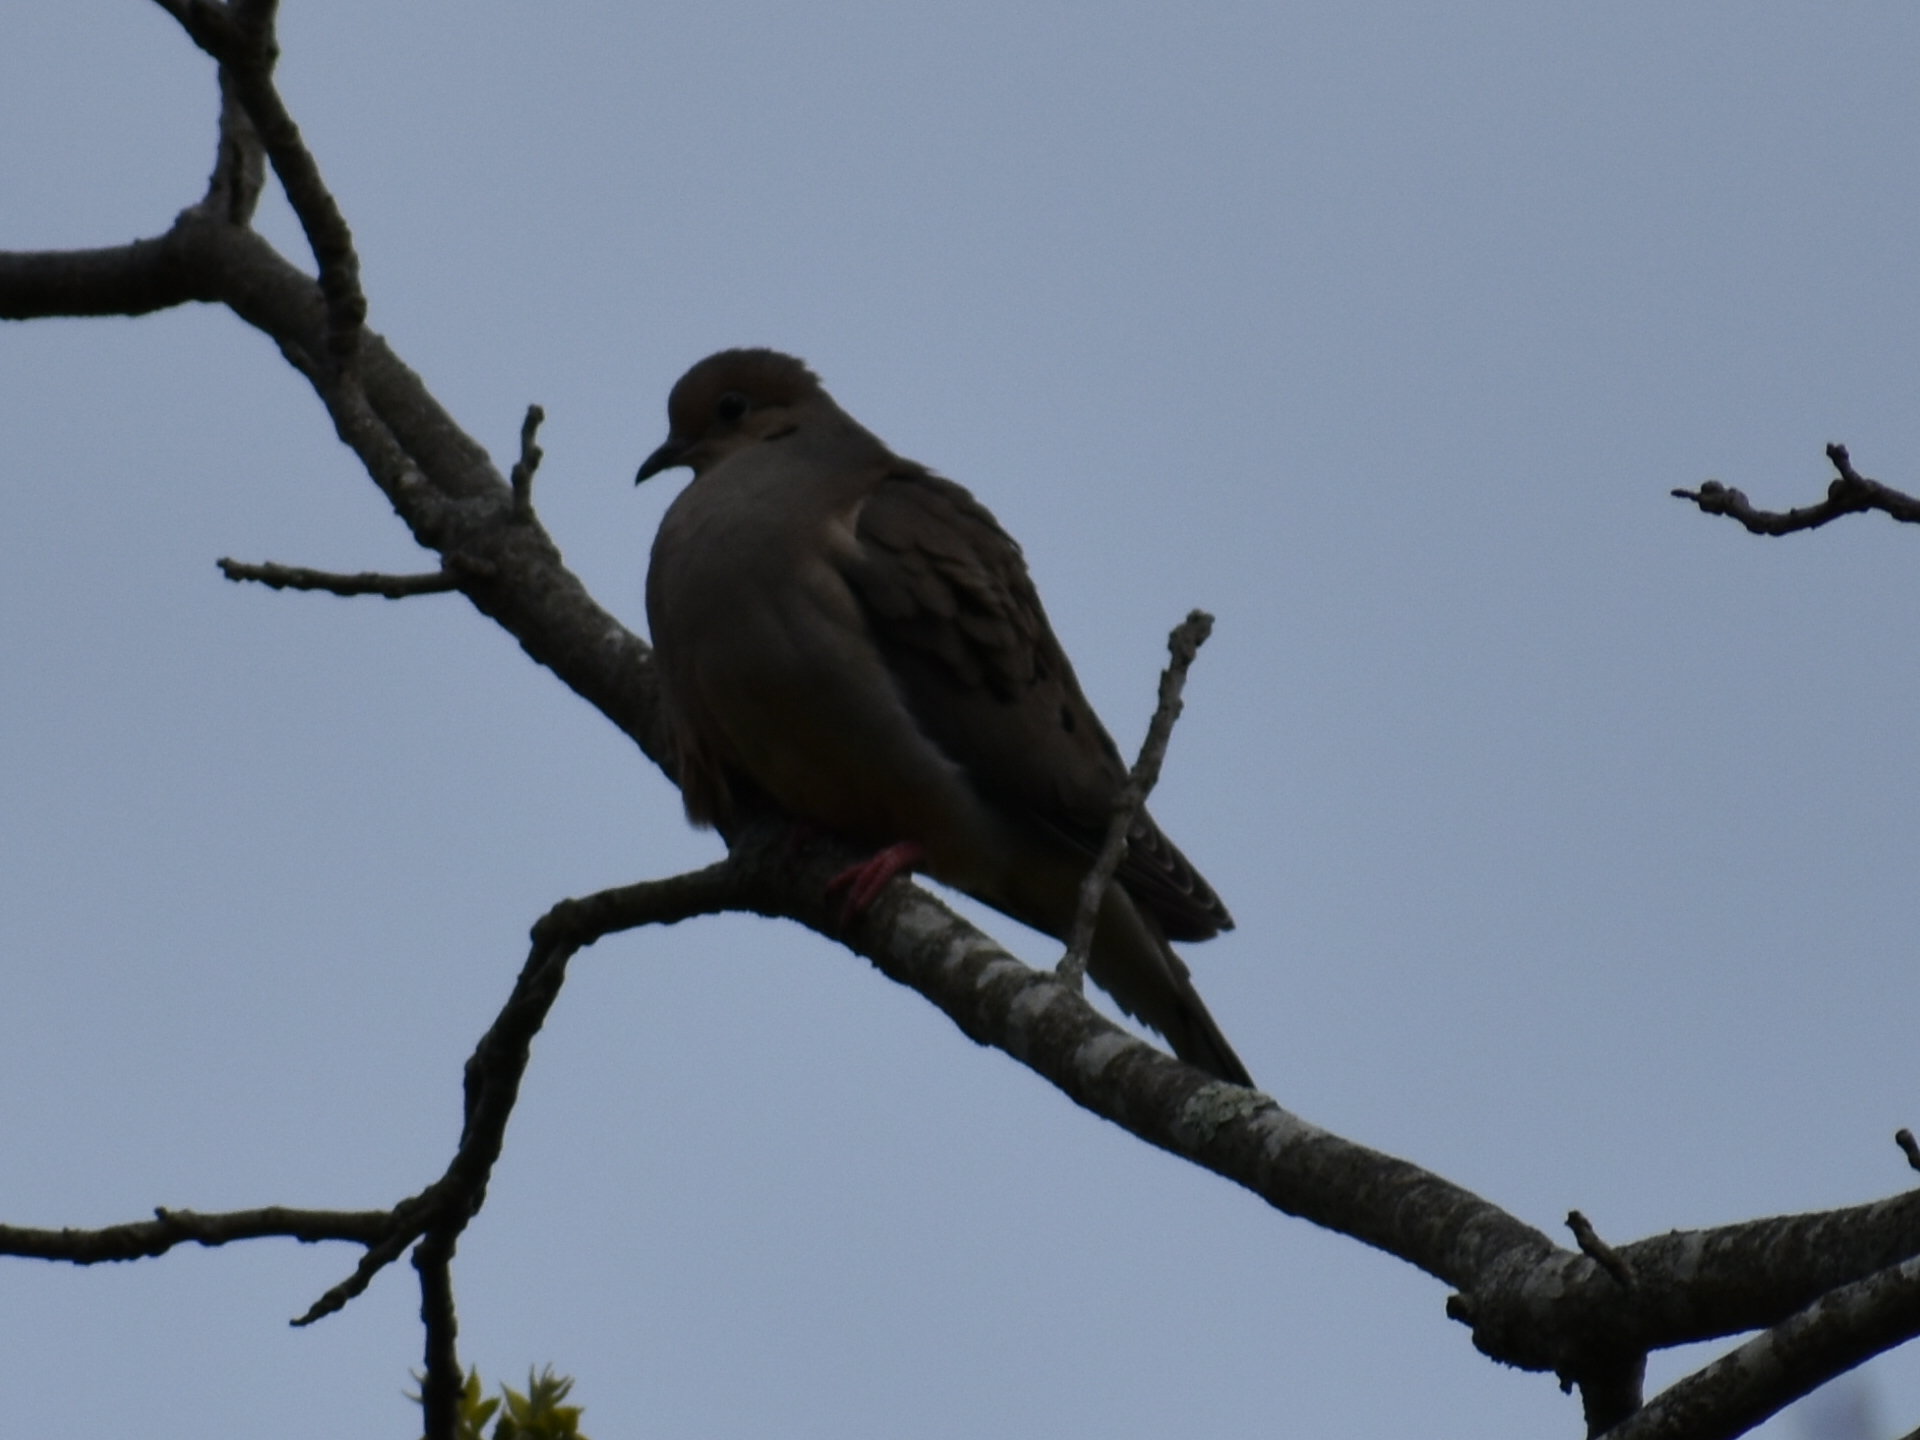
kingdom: Animalia
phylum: Chordata
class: Aves
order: Columbiformes
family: Columbidae
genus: Zenaida
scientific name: Zenaida macroura
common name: Mourning dove
